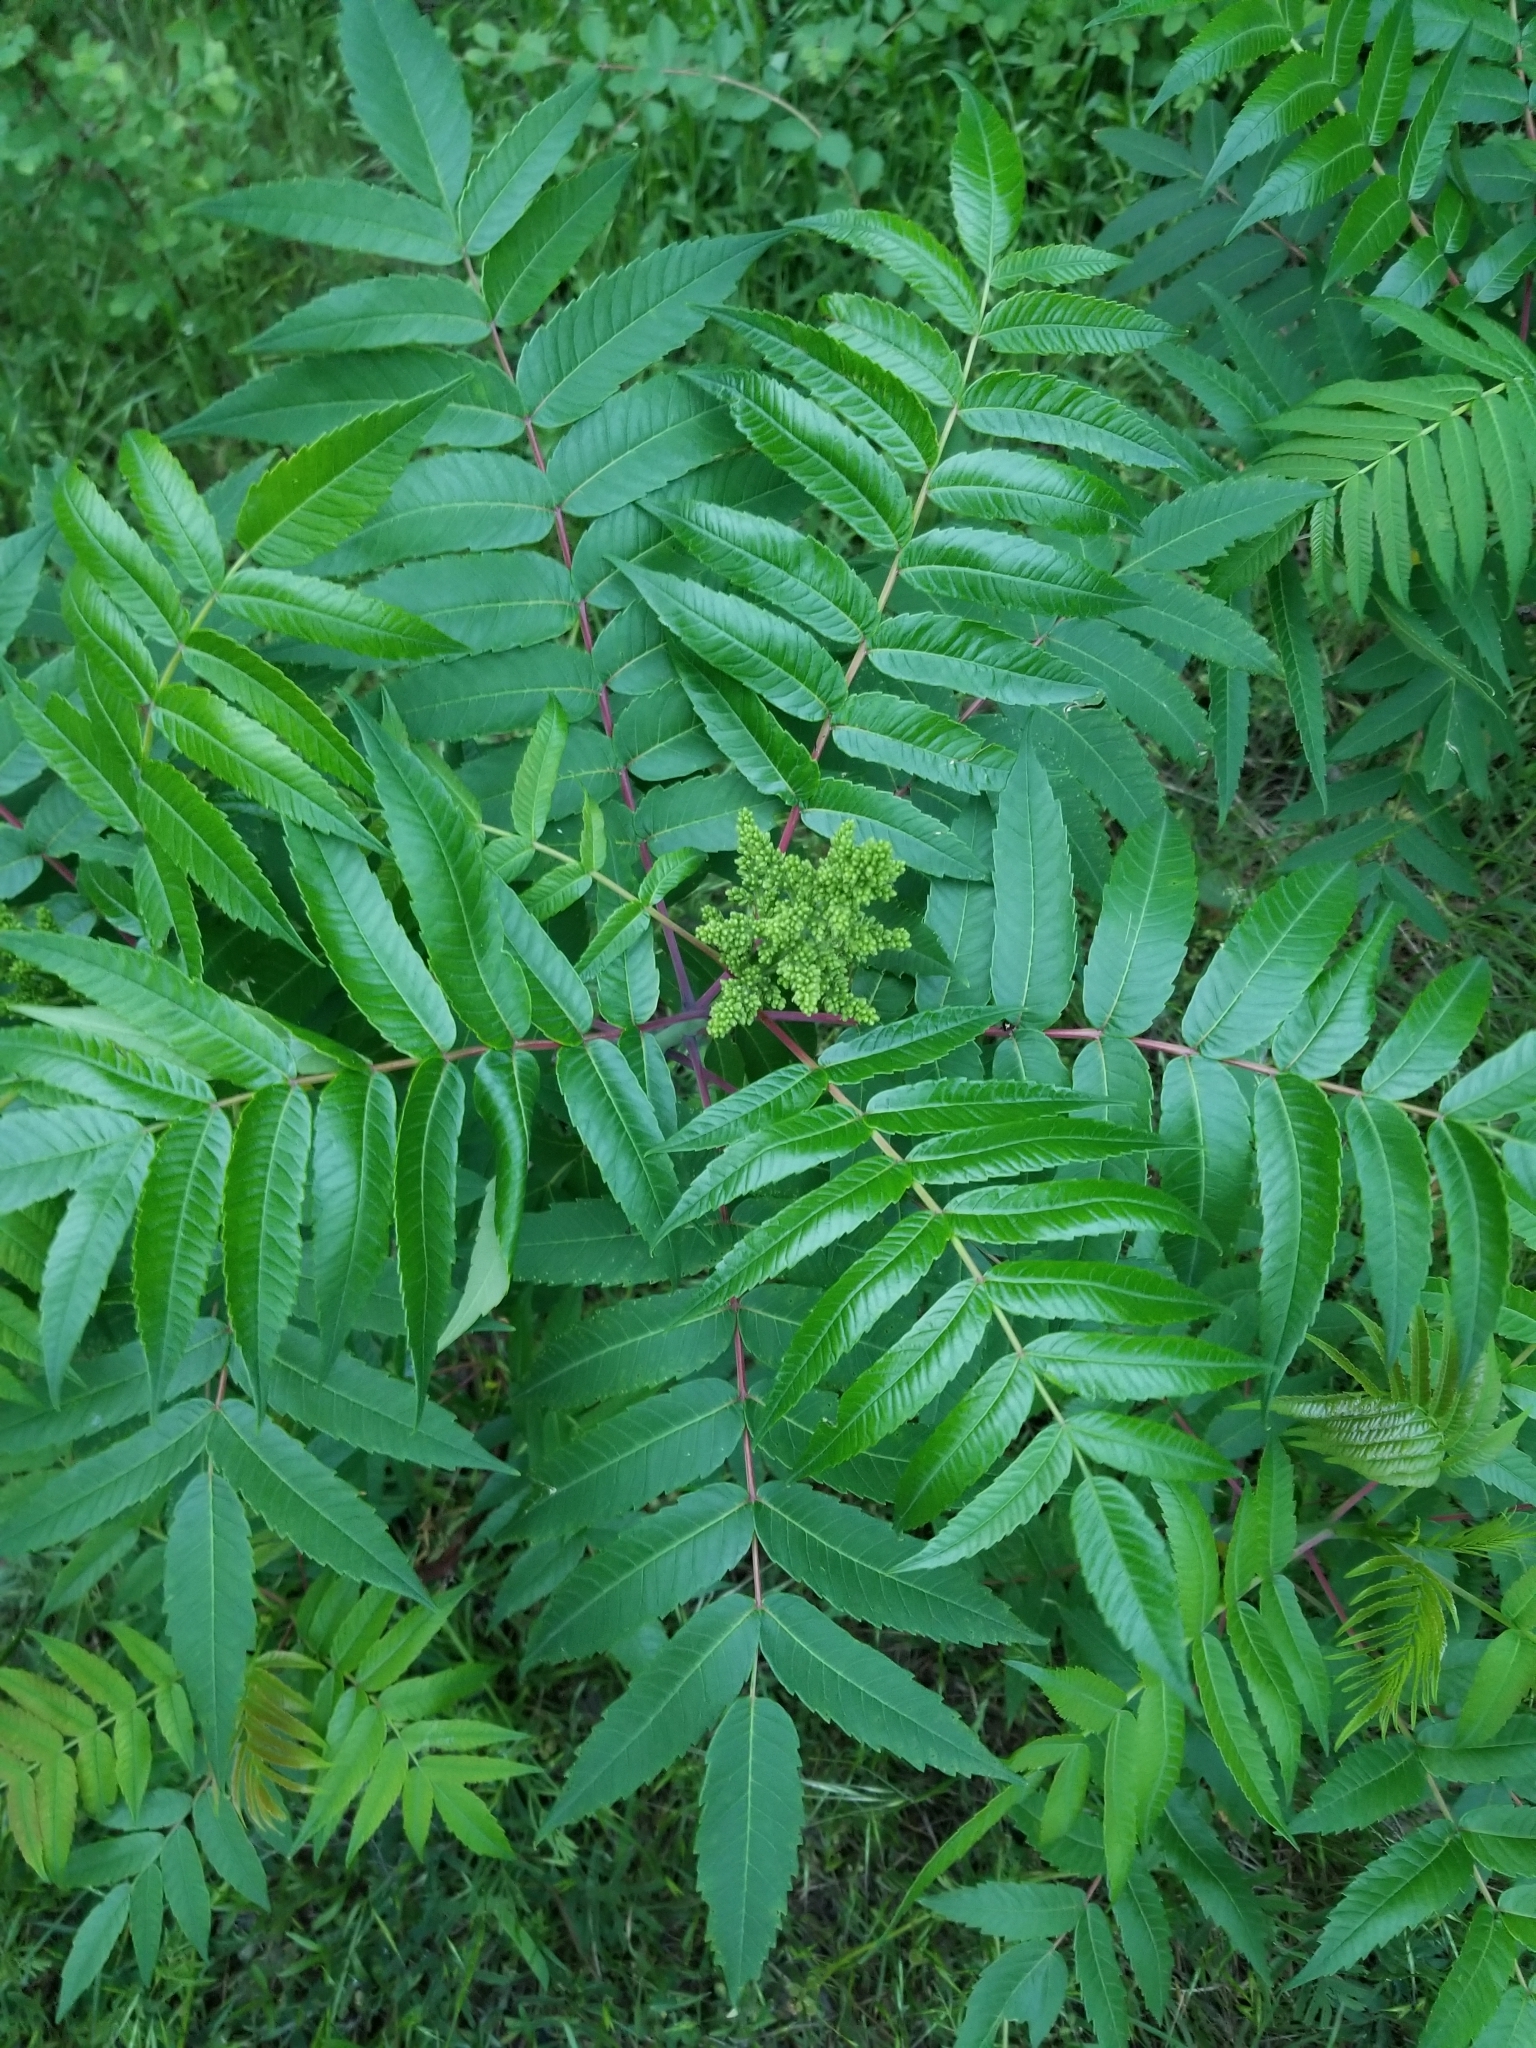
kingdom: Plantae
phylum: Tracheophyta
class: Magnoliopsida
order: Sapindales
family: Anacardiaceae
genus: Rhus
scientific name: Rhus glabra
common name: Scarlet sumac
